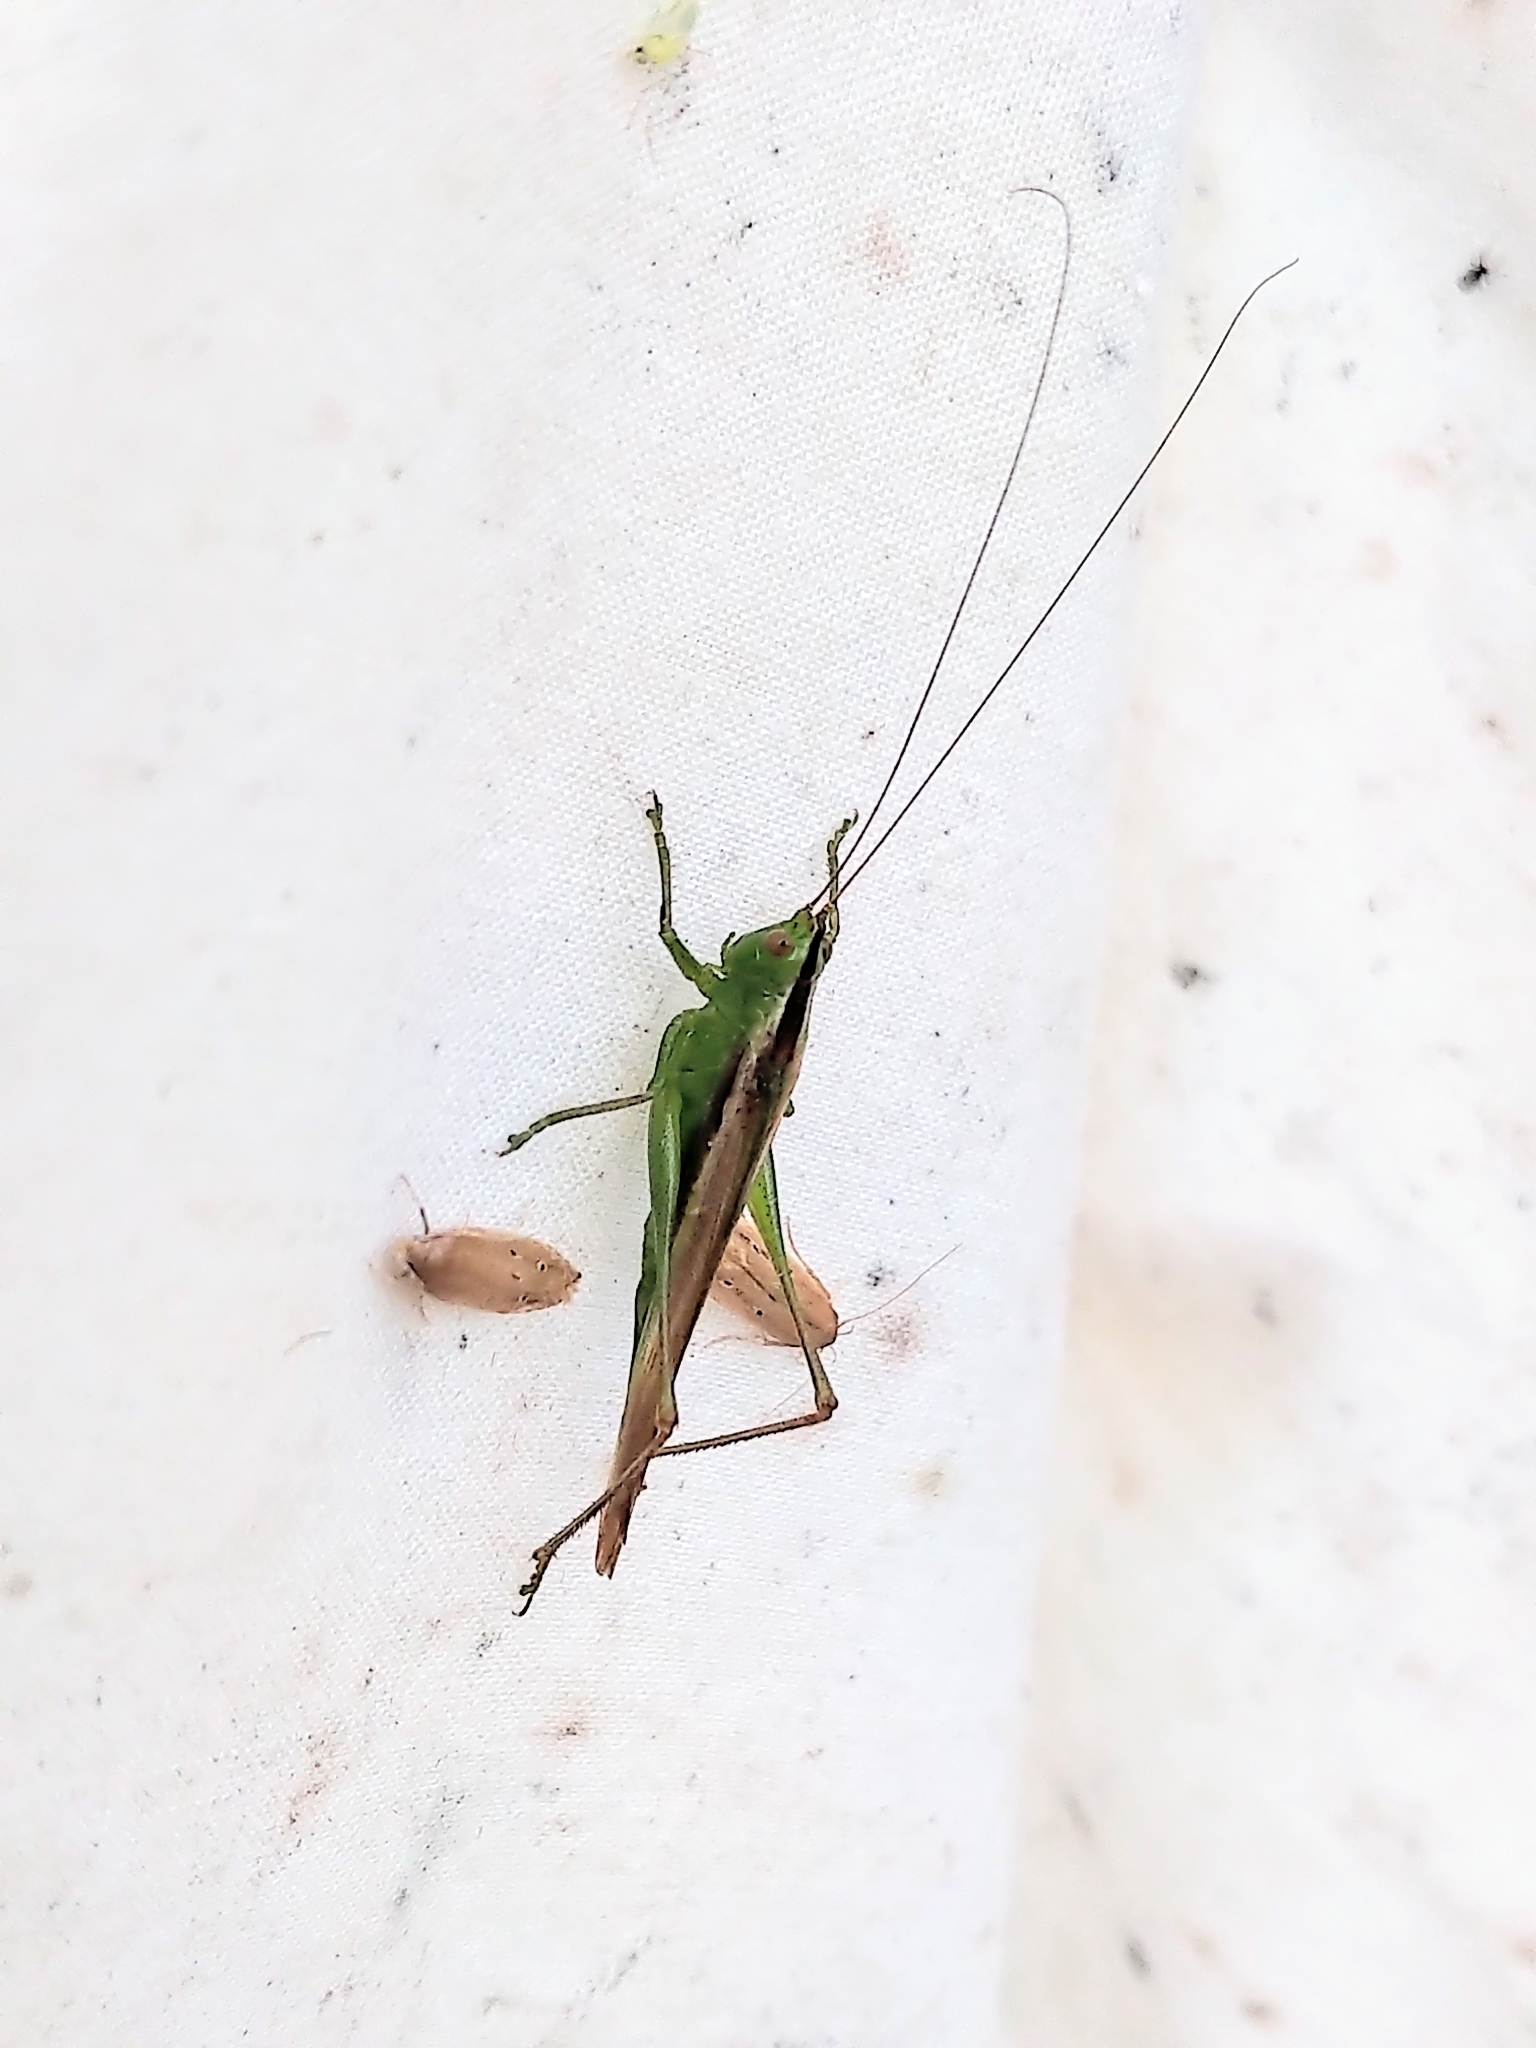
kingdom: Animalia
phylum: Arthropoda
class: Insecta
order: Orthoptera
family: Tettigoniidae
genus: Conocephalus
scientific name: Conocephalus fasciatus
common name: Slender meadow katydid
